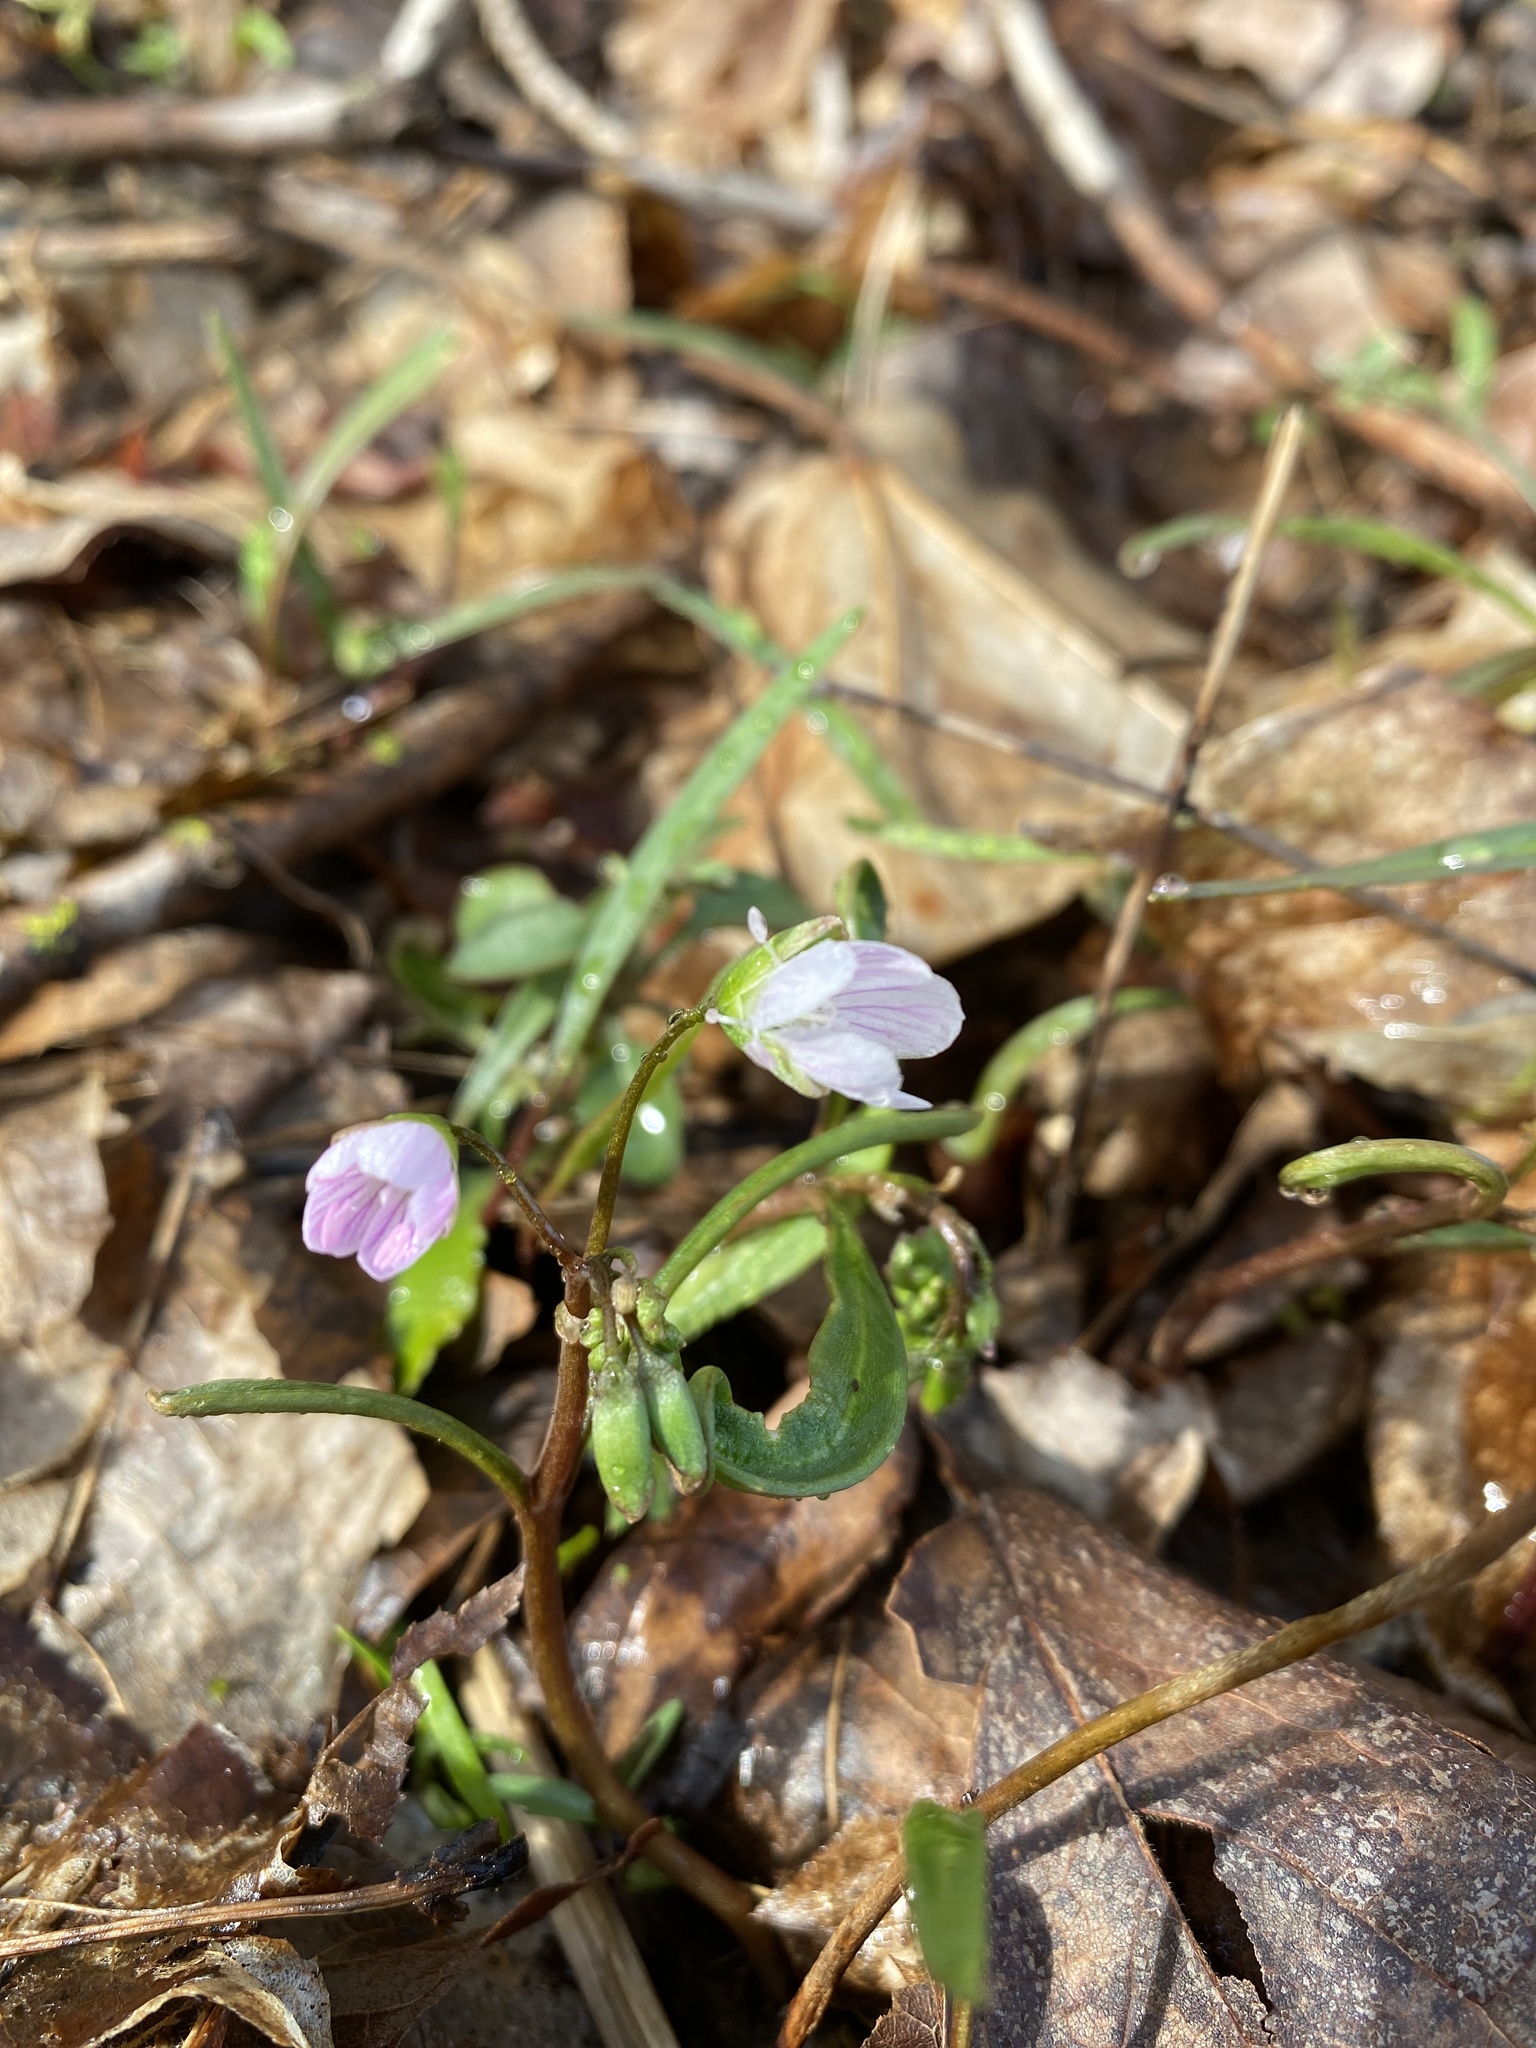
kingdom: Plantae
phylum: Tracheophyta
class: Magnoliopsida
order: Caryophyllales
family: Montiaceae
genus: Claytonia
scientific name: Claytonia virginica
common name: Virginia springbeauty
